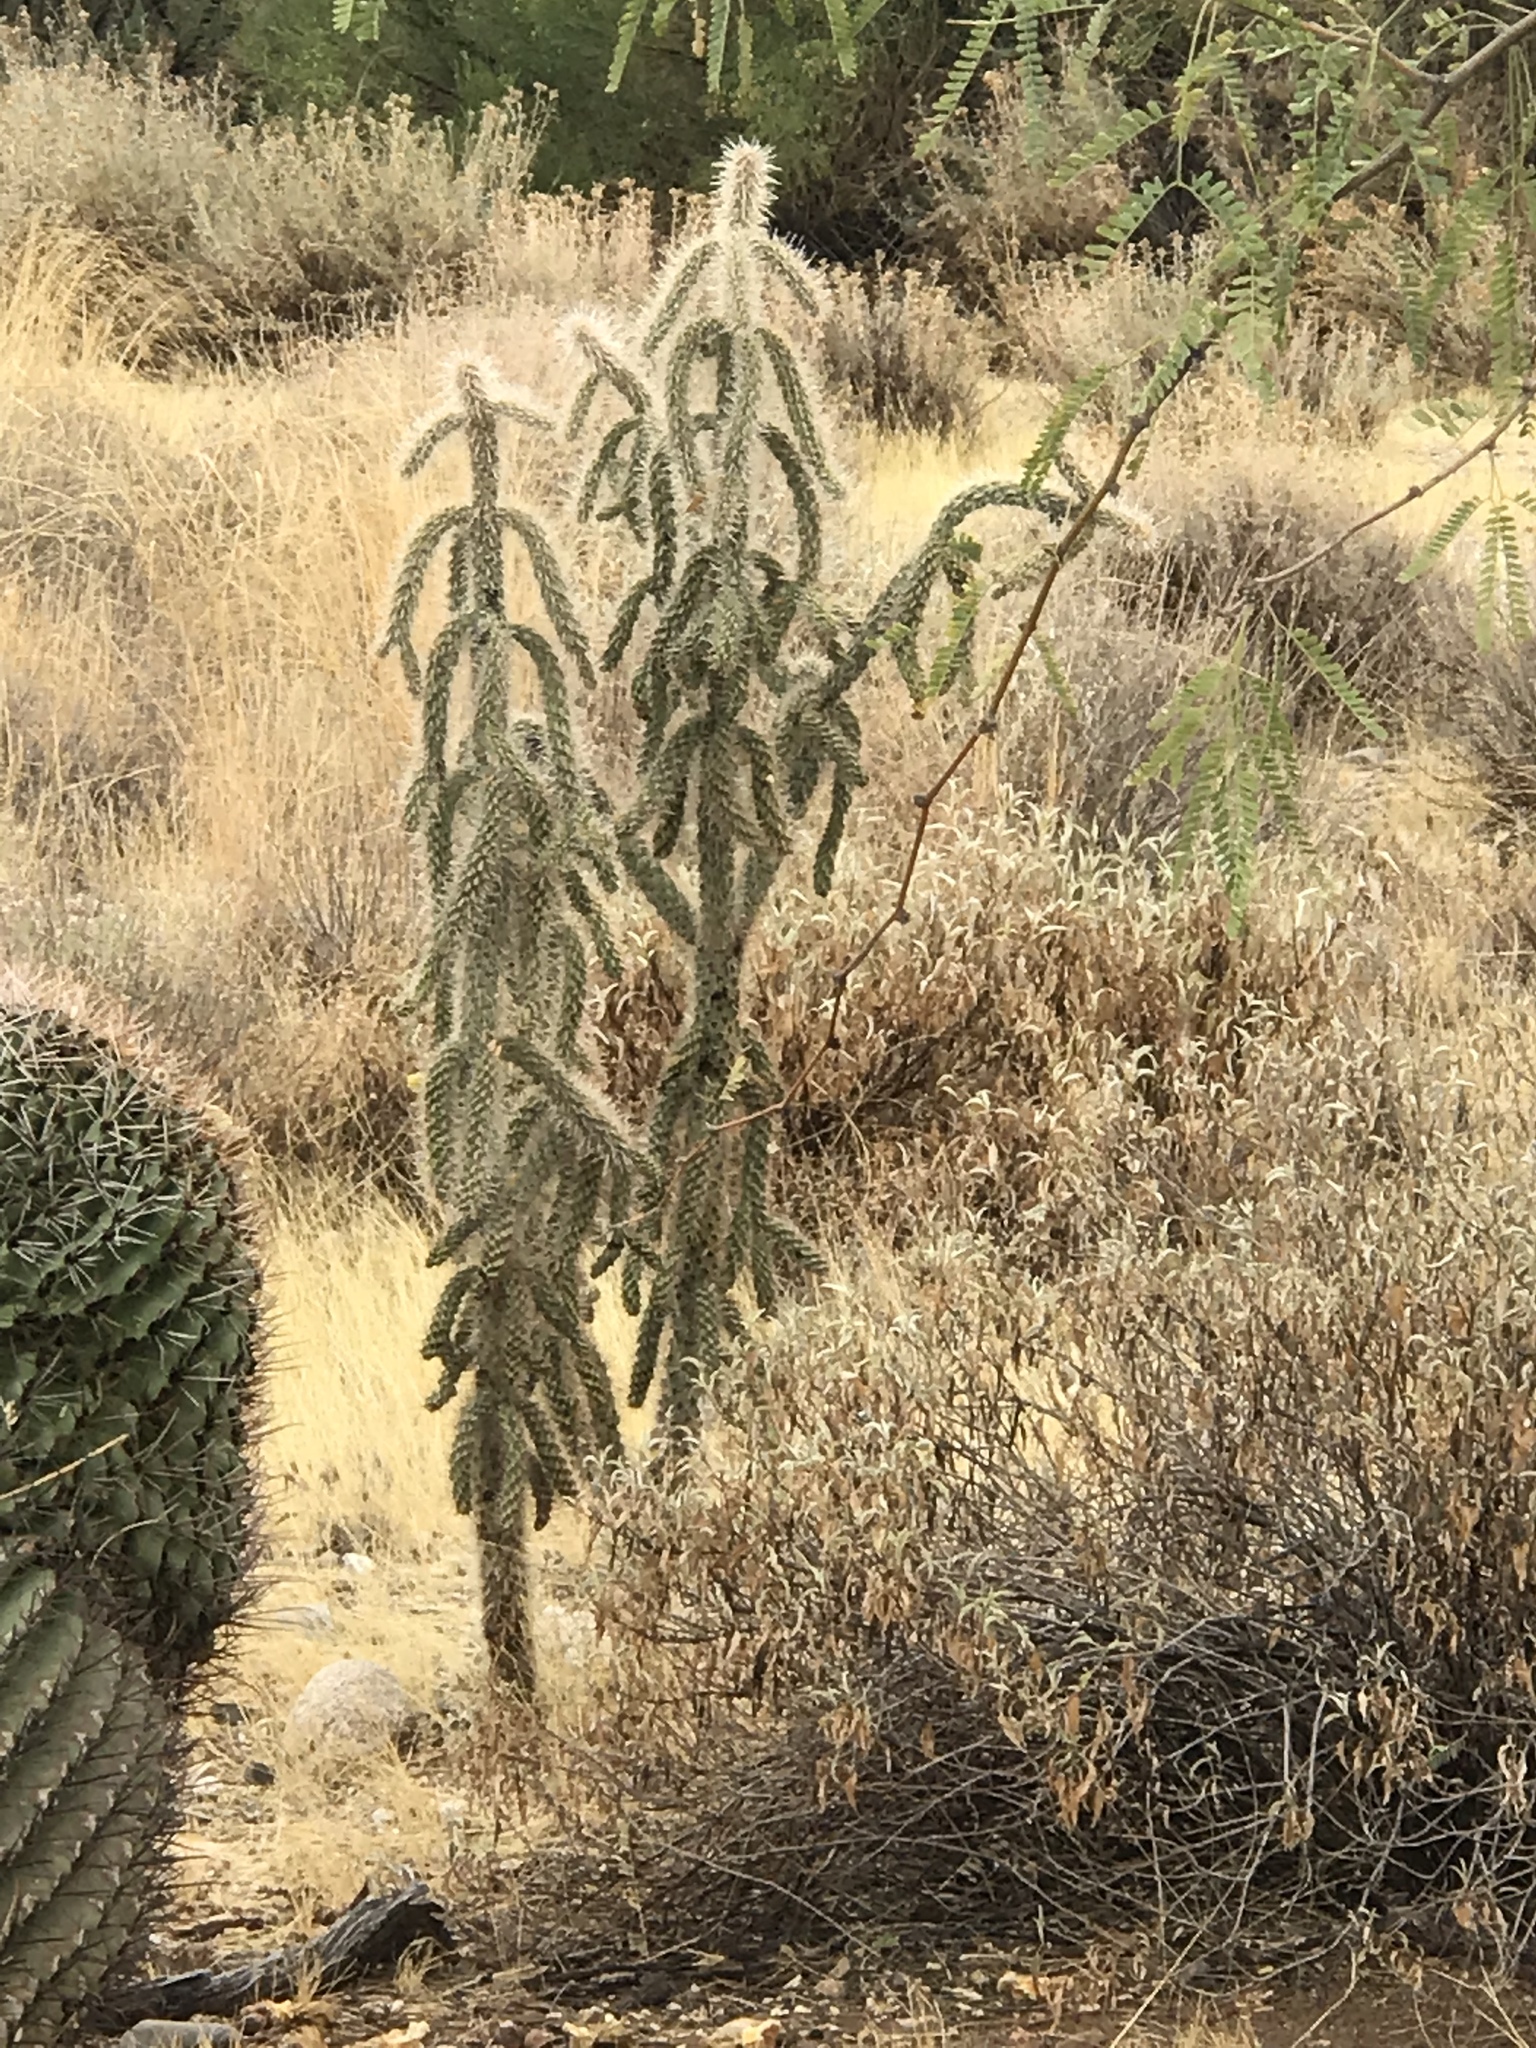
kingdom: Plantae
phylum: Tracheophyta
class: Magnoliopsida
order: Caryophyllales
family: Cactaceae
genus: Cylindropuntia
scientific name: Cylindropuntia imbricata
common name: Candelabrum cactus
